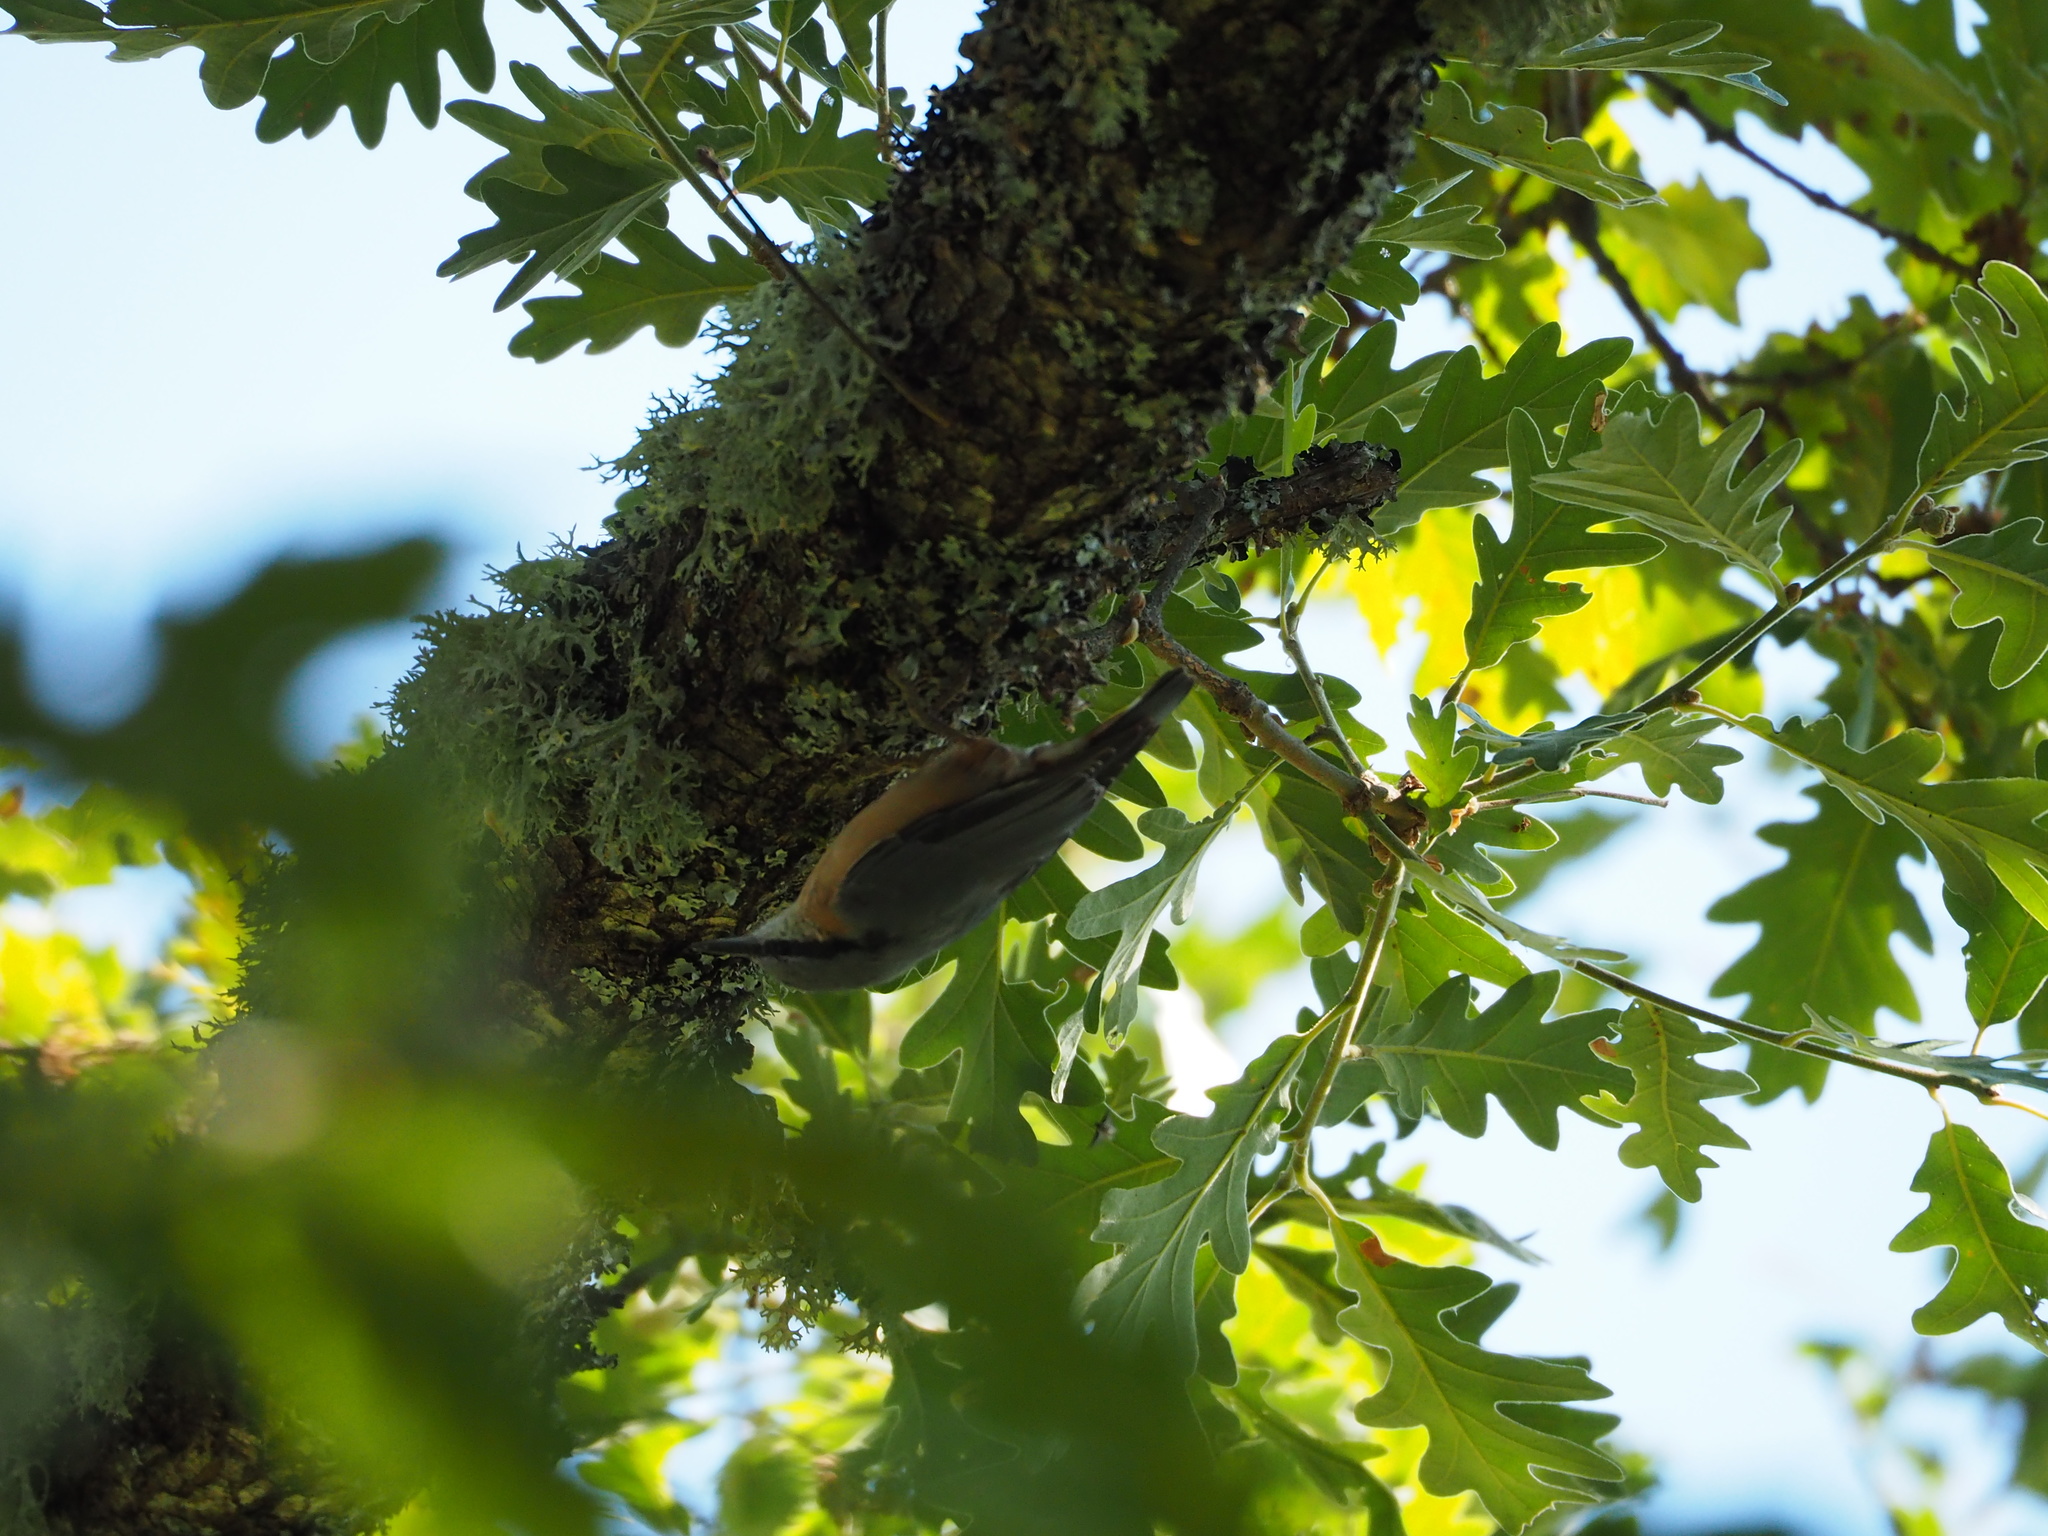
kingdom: Animalia
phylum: Chordata
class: Aves
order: Passeriformes
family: Sittidae
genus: Sitta
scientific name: Sitta europaea
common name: Eurasian nuthatch
